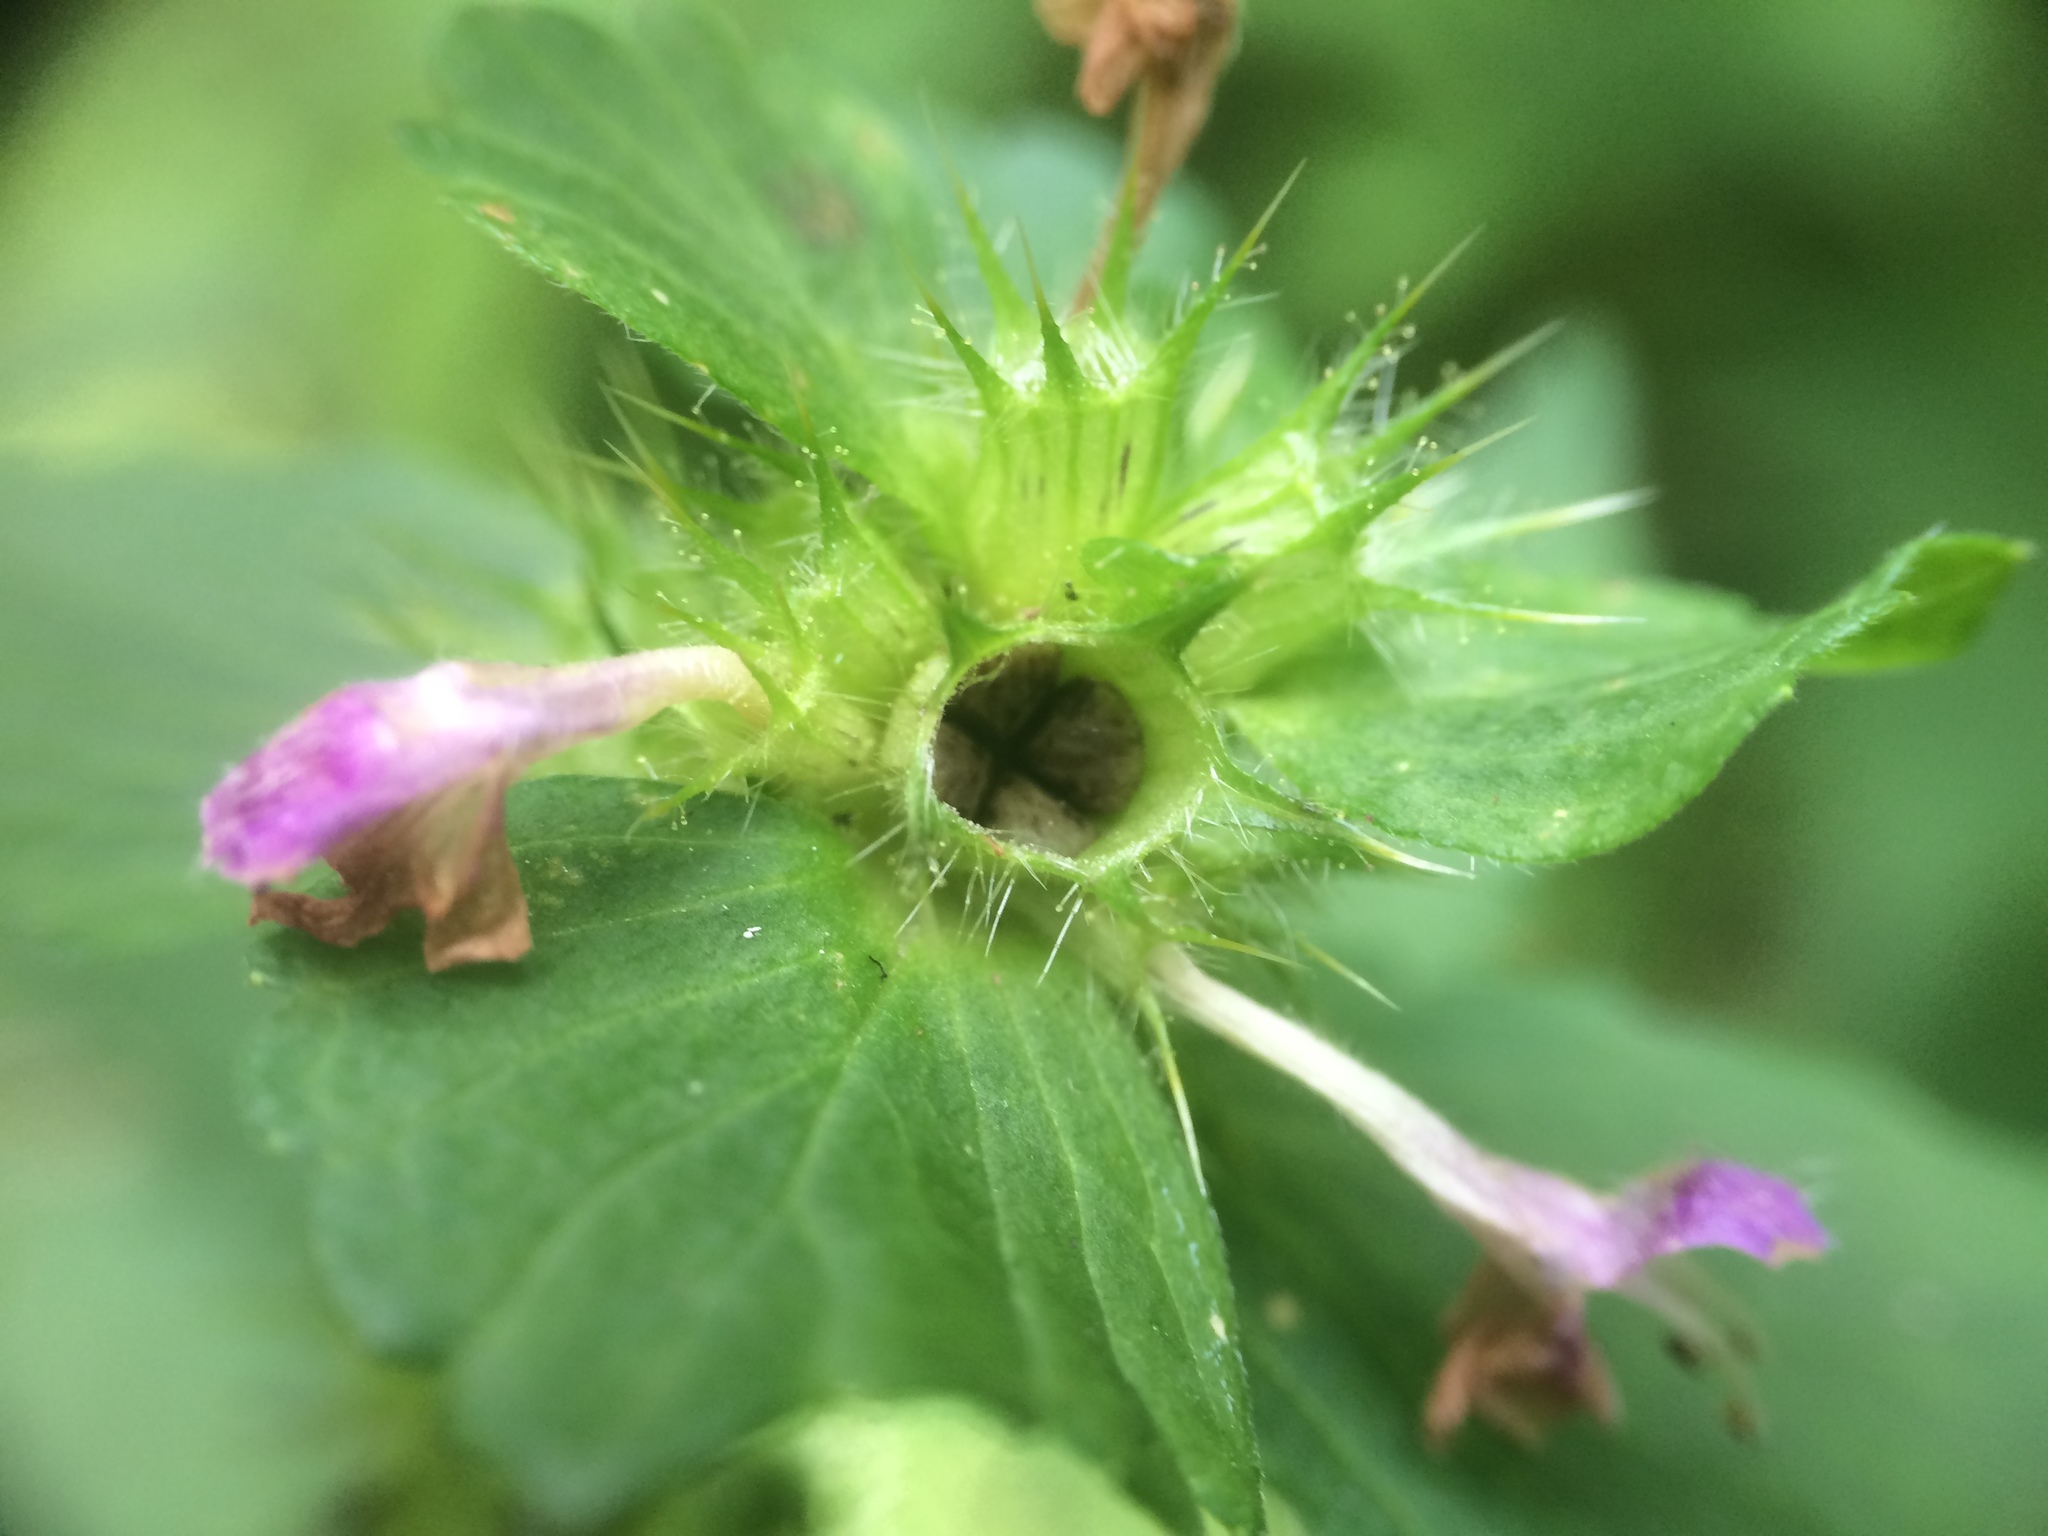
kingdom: Plantae
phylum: Tracheophyta
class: Magnoliopsida
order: Lamiales
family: Lamiaceae
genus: Galeopsis
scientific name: Galeopsis bifida
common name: Bifid hemp-nettle
